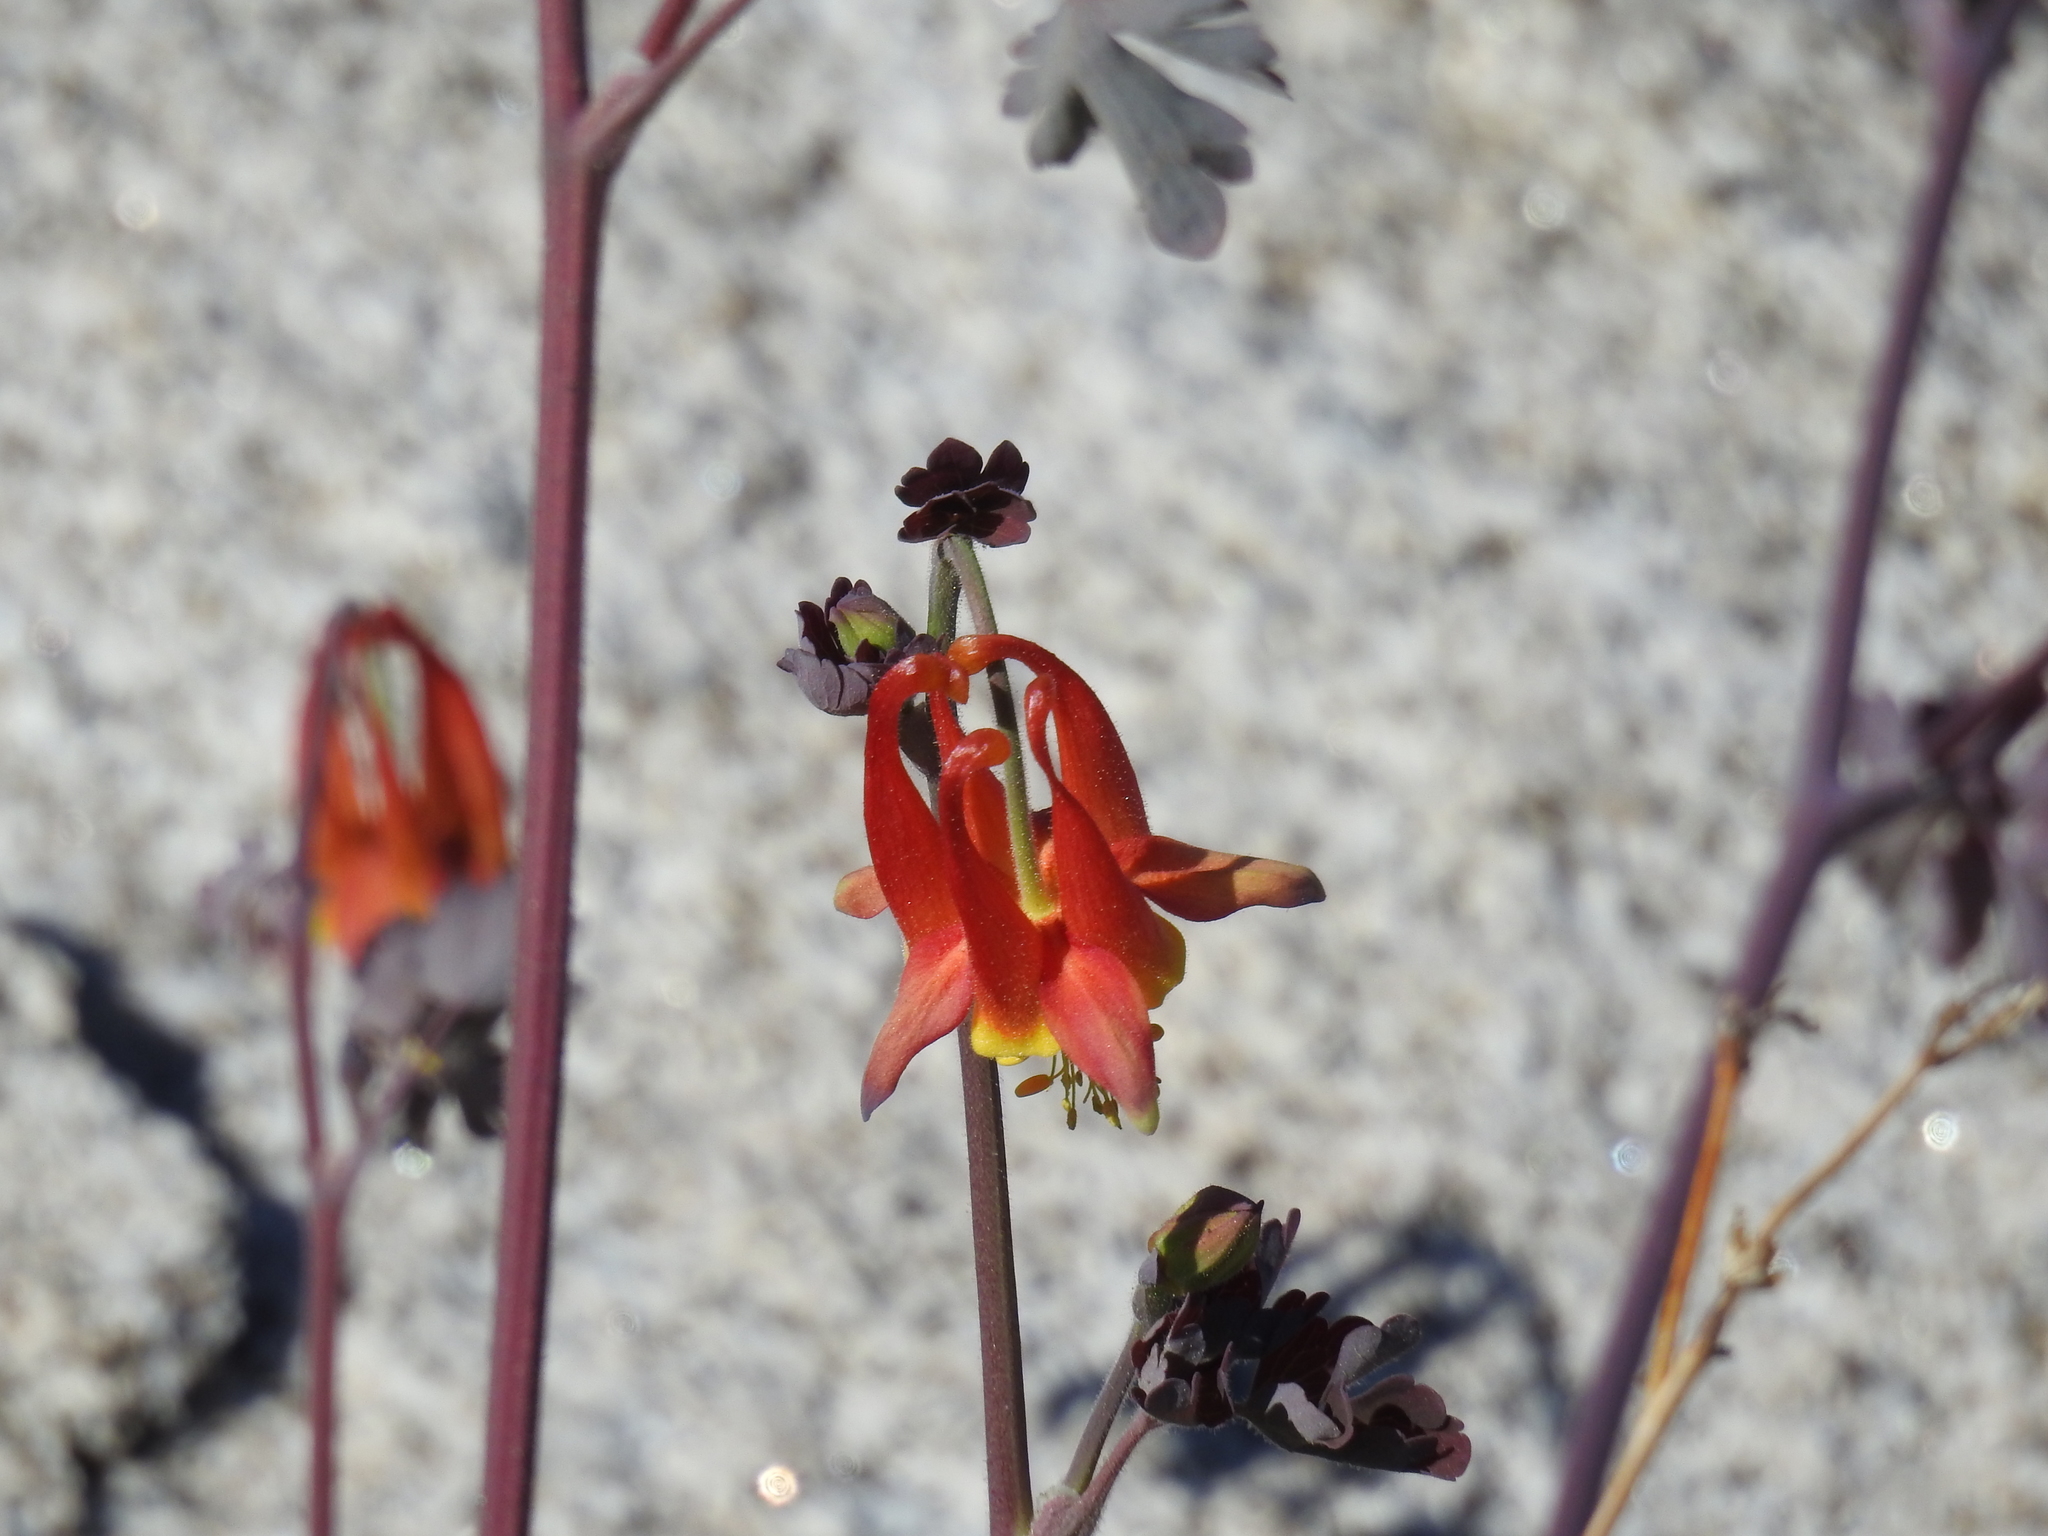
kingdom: Plantae
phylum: Tracheophyta
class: Magnoliopsida
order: Ranunculales
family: Ranunculaceae
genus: Aquilegia
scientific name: Aquilegia formosa
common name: Sitka columbine
